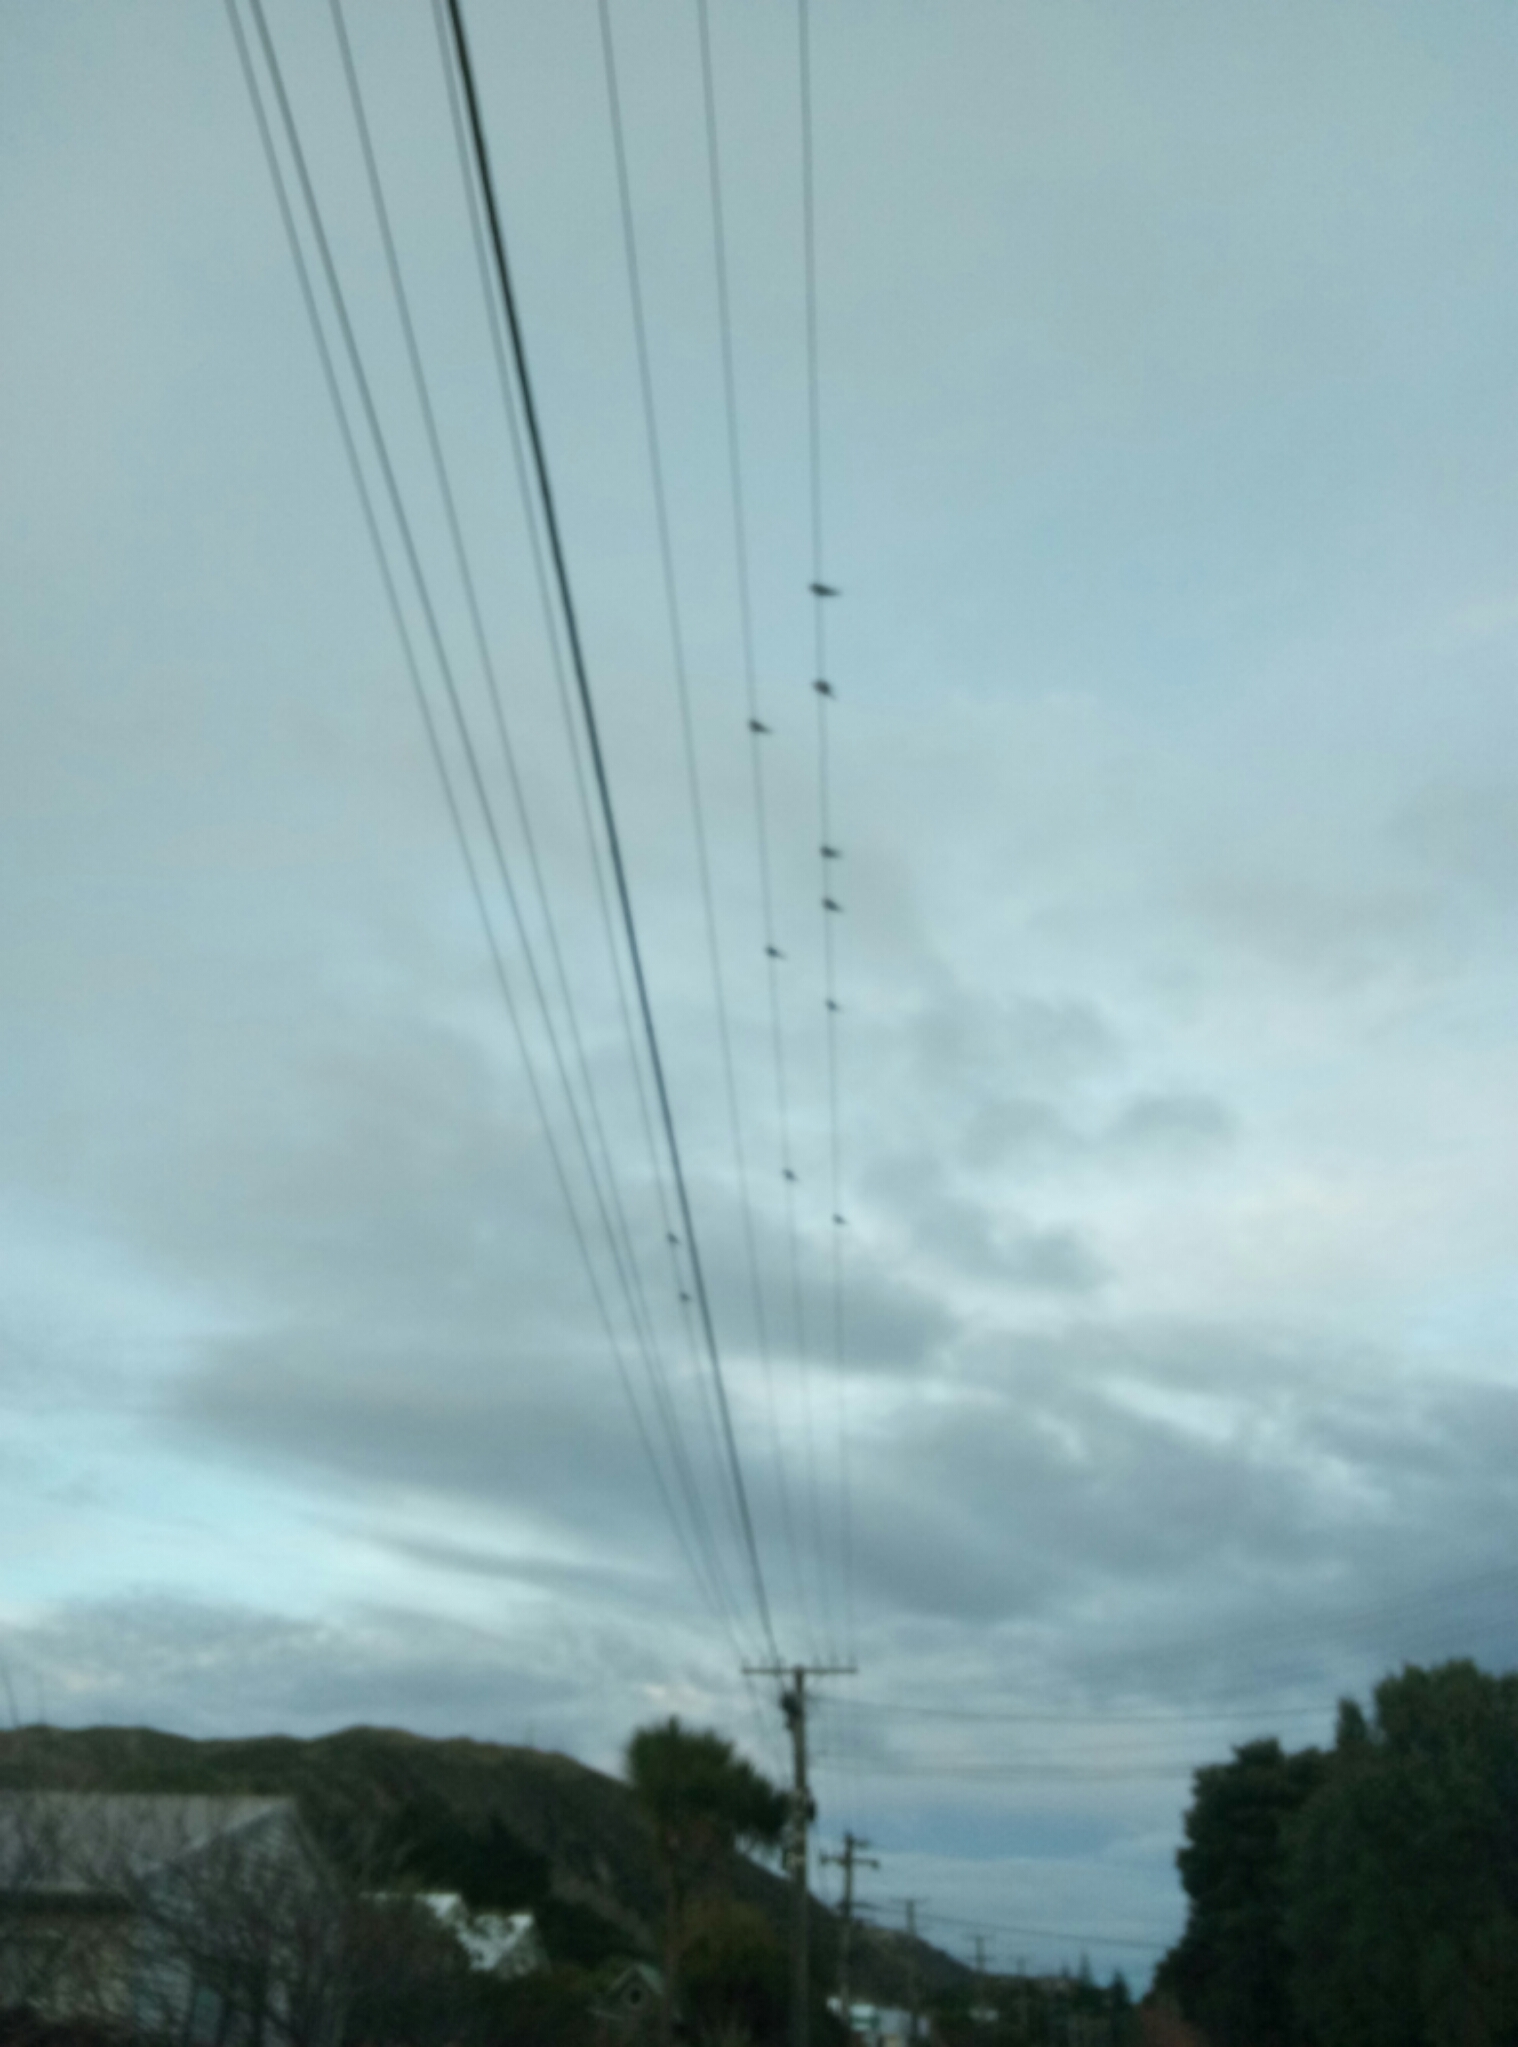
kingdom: Animalia
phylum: Chordata
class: Aves
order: Passeriformes
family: Hirundinidae
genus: Hirundo
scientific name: Hirundo neoxena
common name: Welcome swallow
